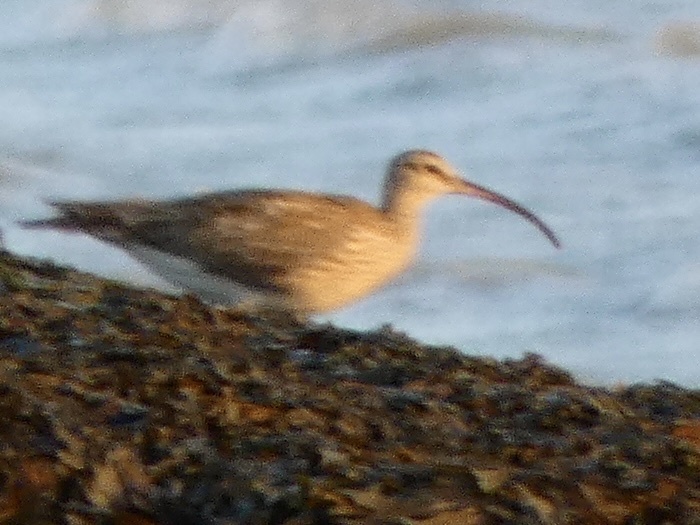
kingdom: Animalia
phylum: Chordata
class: Aves
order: Charadriiformes
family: Scolopacidae
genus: Numenius
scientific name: Numenius phaeopus
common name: Whimbrel
